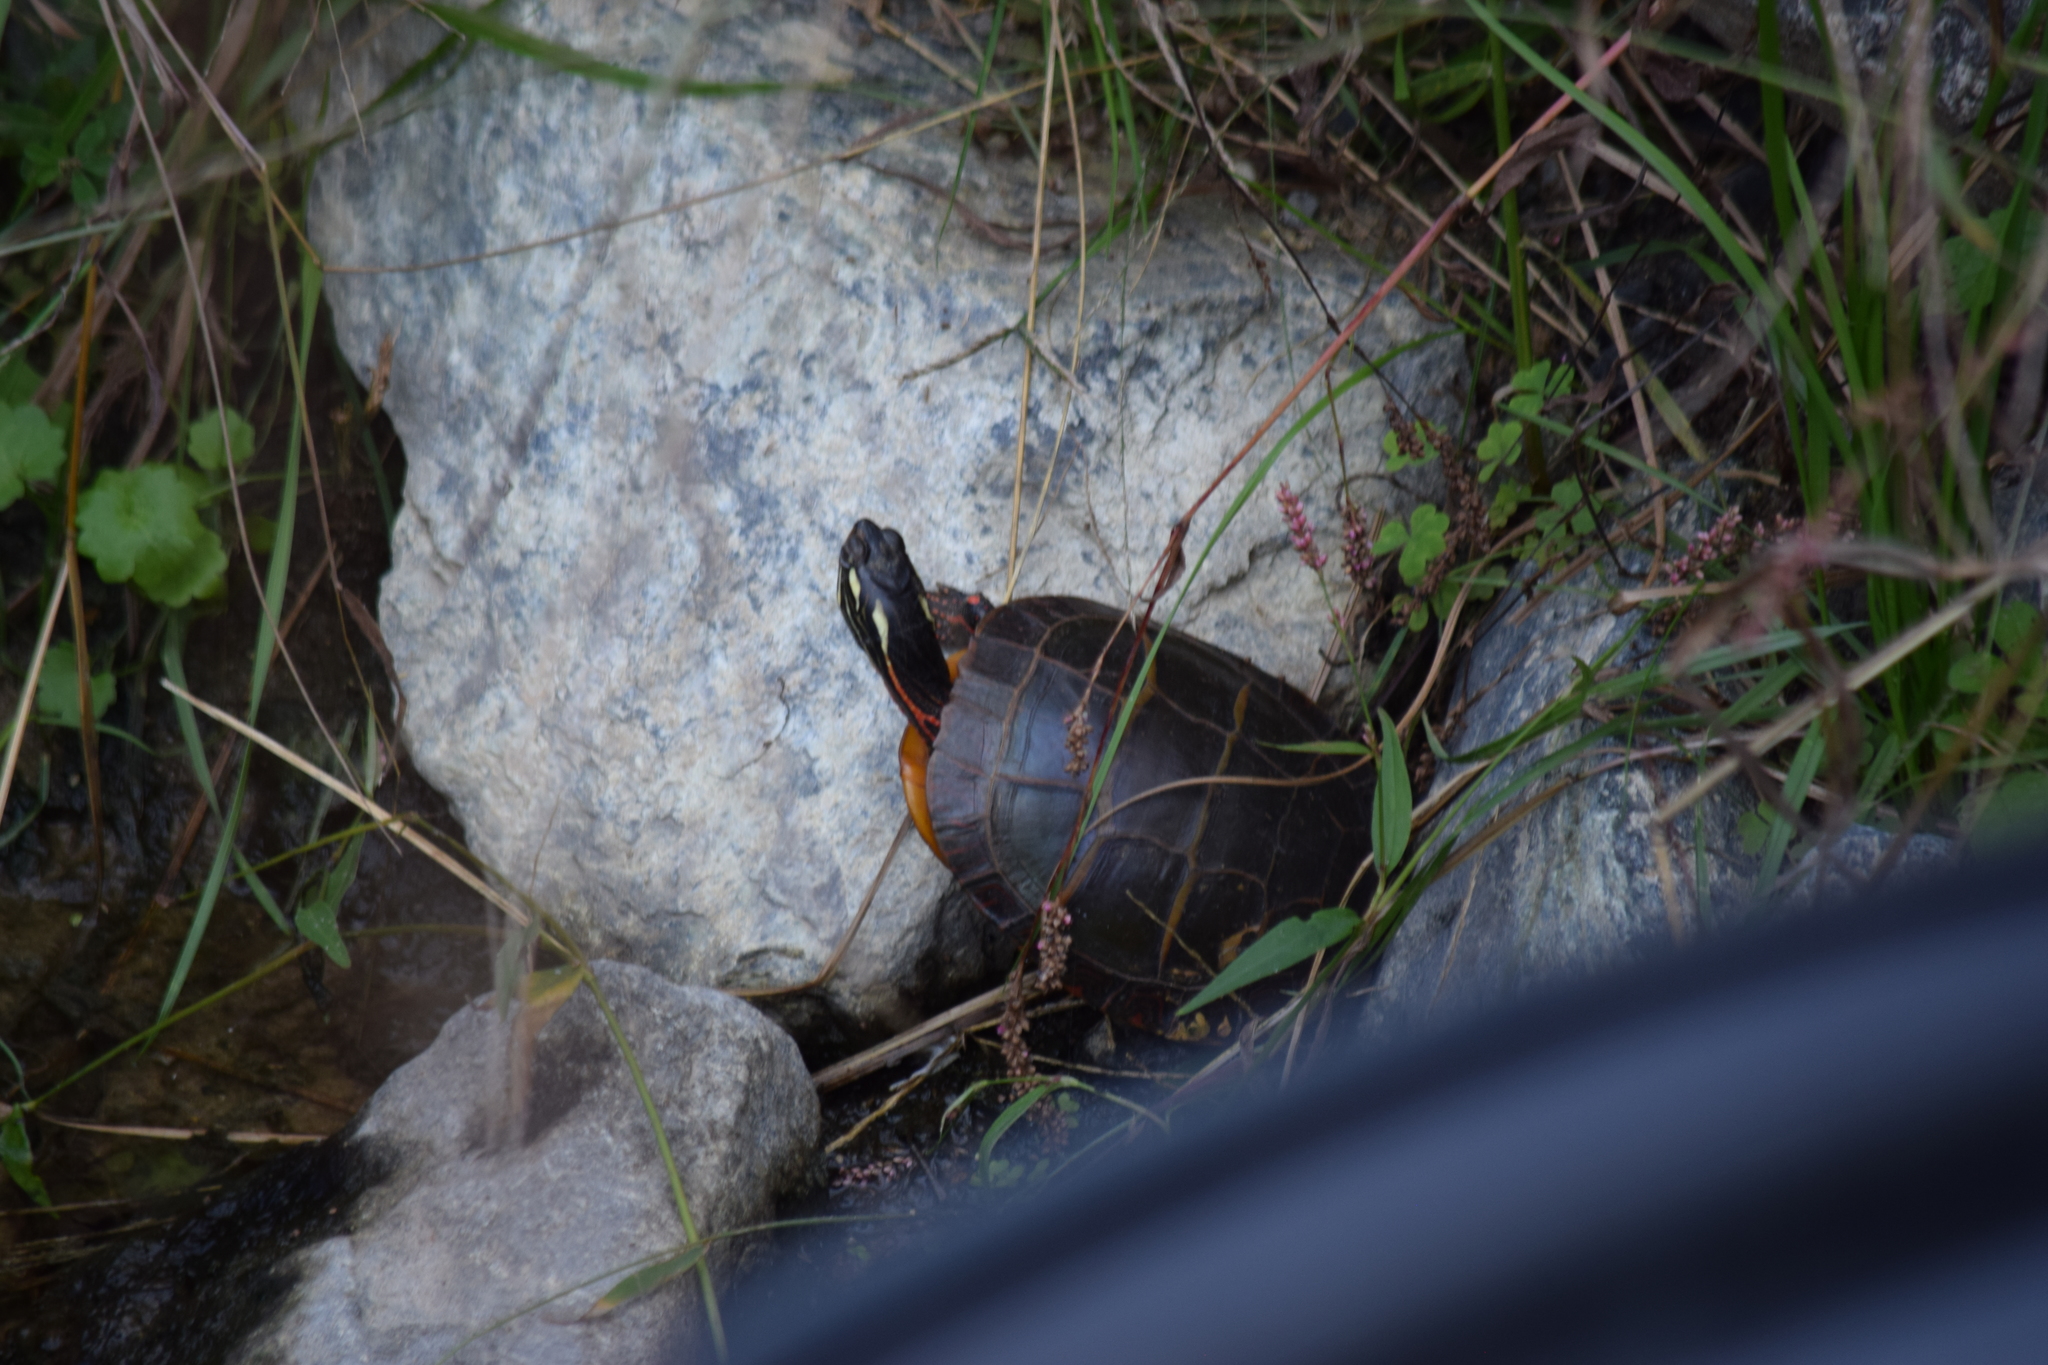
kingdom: Animalia
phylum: Chordata
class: Testudines
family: Emydidae
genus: Chrysemys
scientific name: Chrysemys picta
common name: Painted turtle
